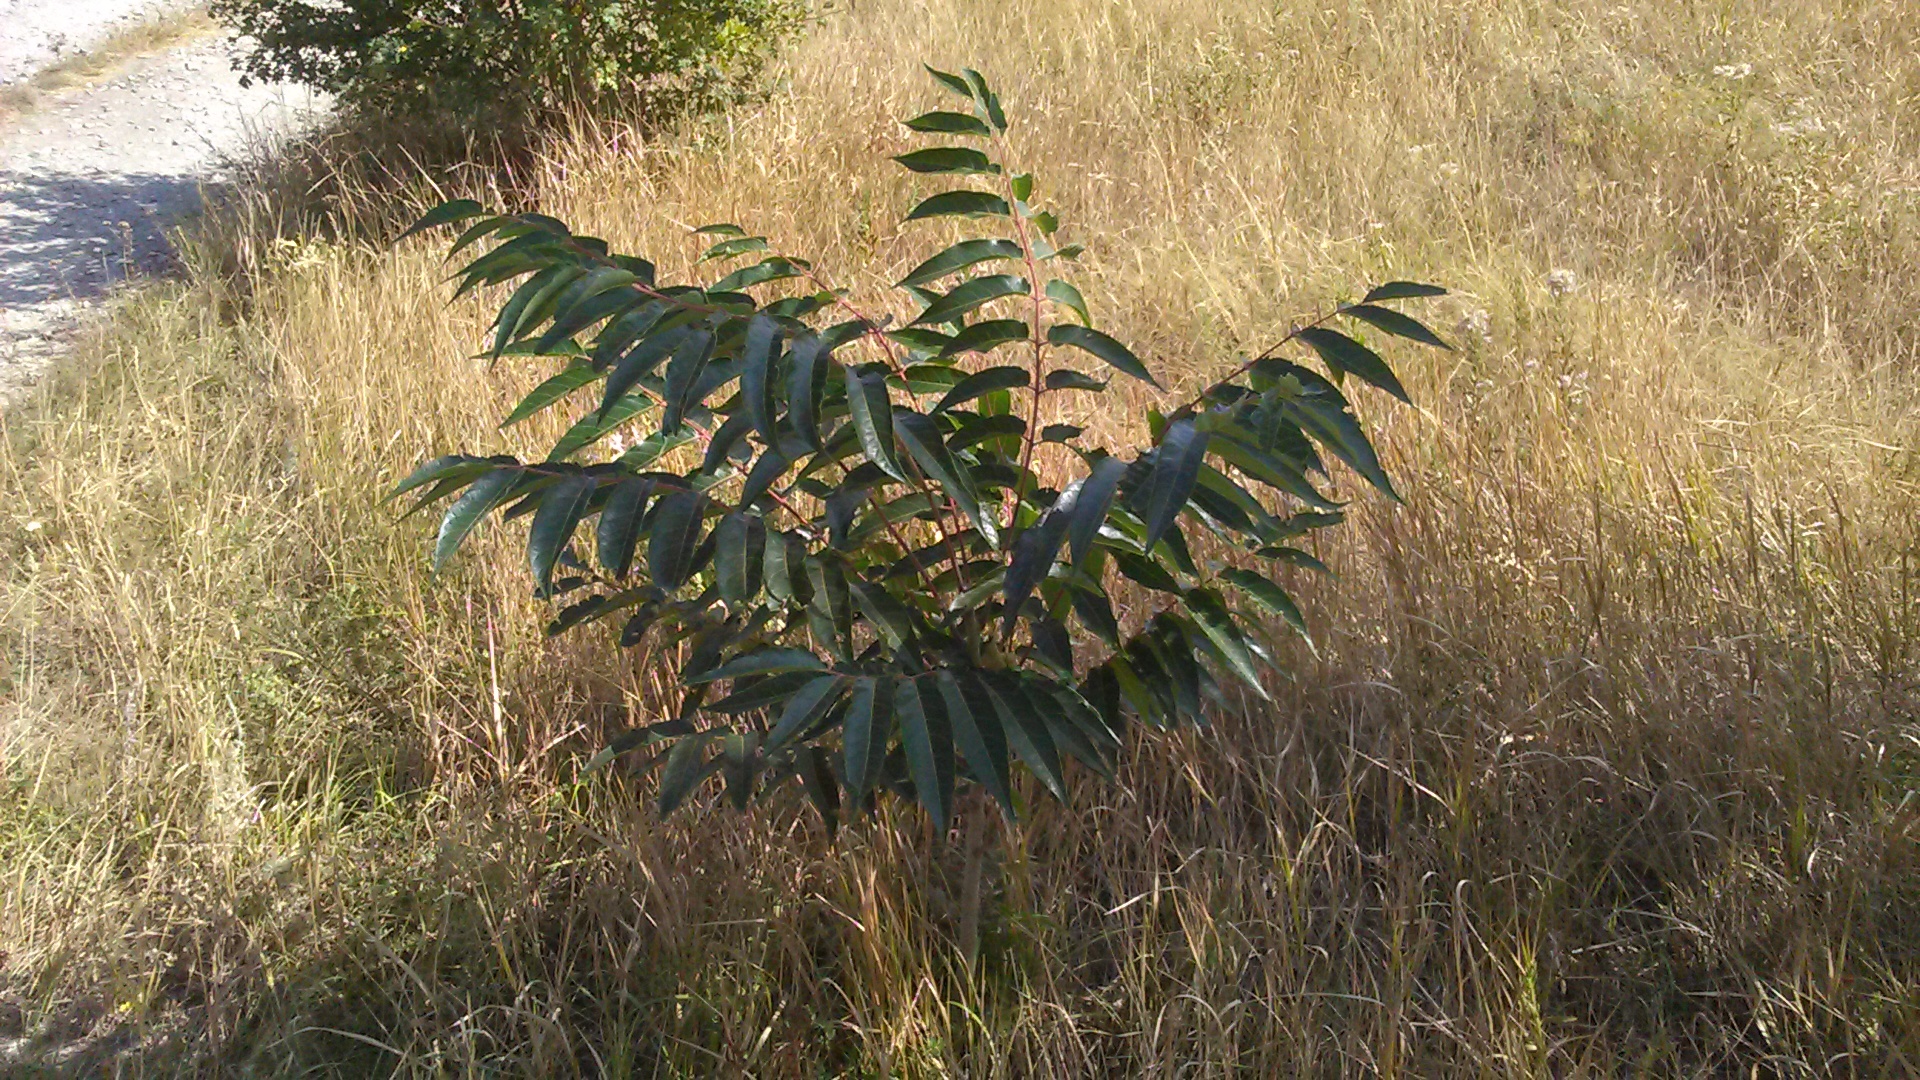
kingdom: Plantae
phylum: Tracheophyta
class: Magnoliopsida
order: Sapindales
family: Simaroubaceae
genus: Ailanthus
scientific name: Ailanthus altissima
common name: Tree-of-heaven
